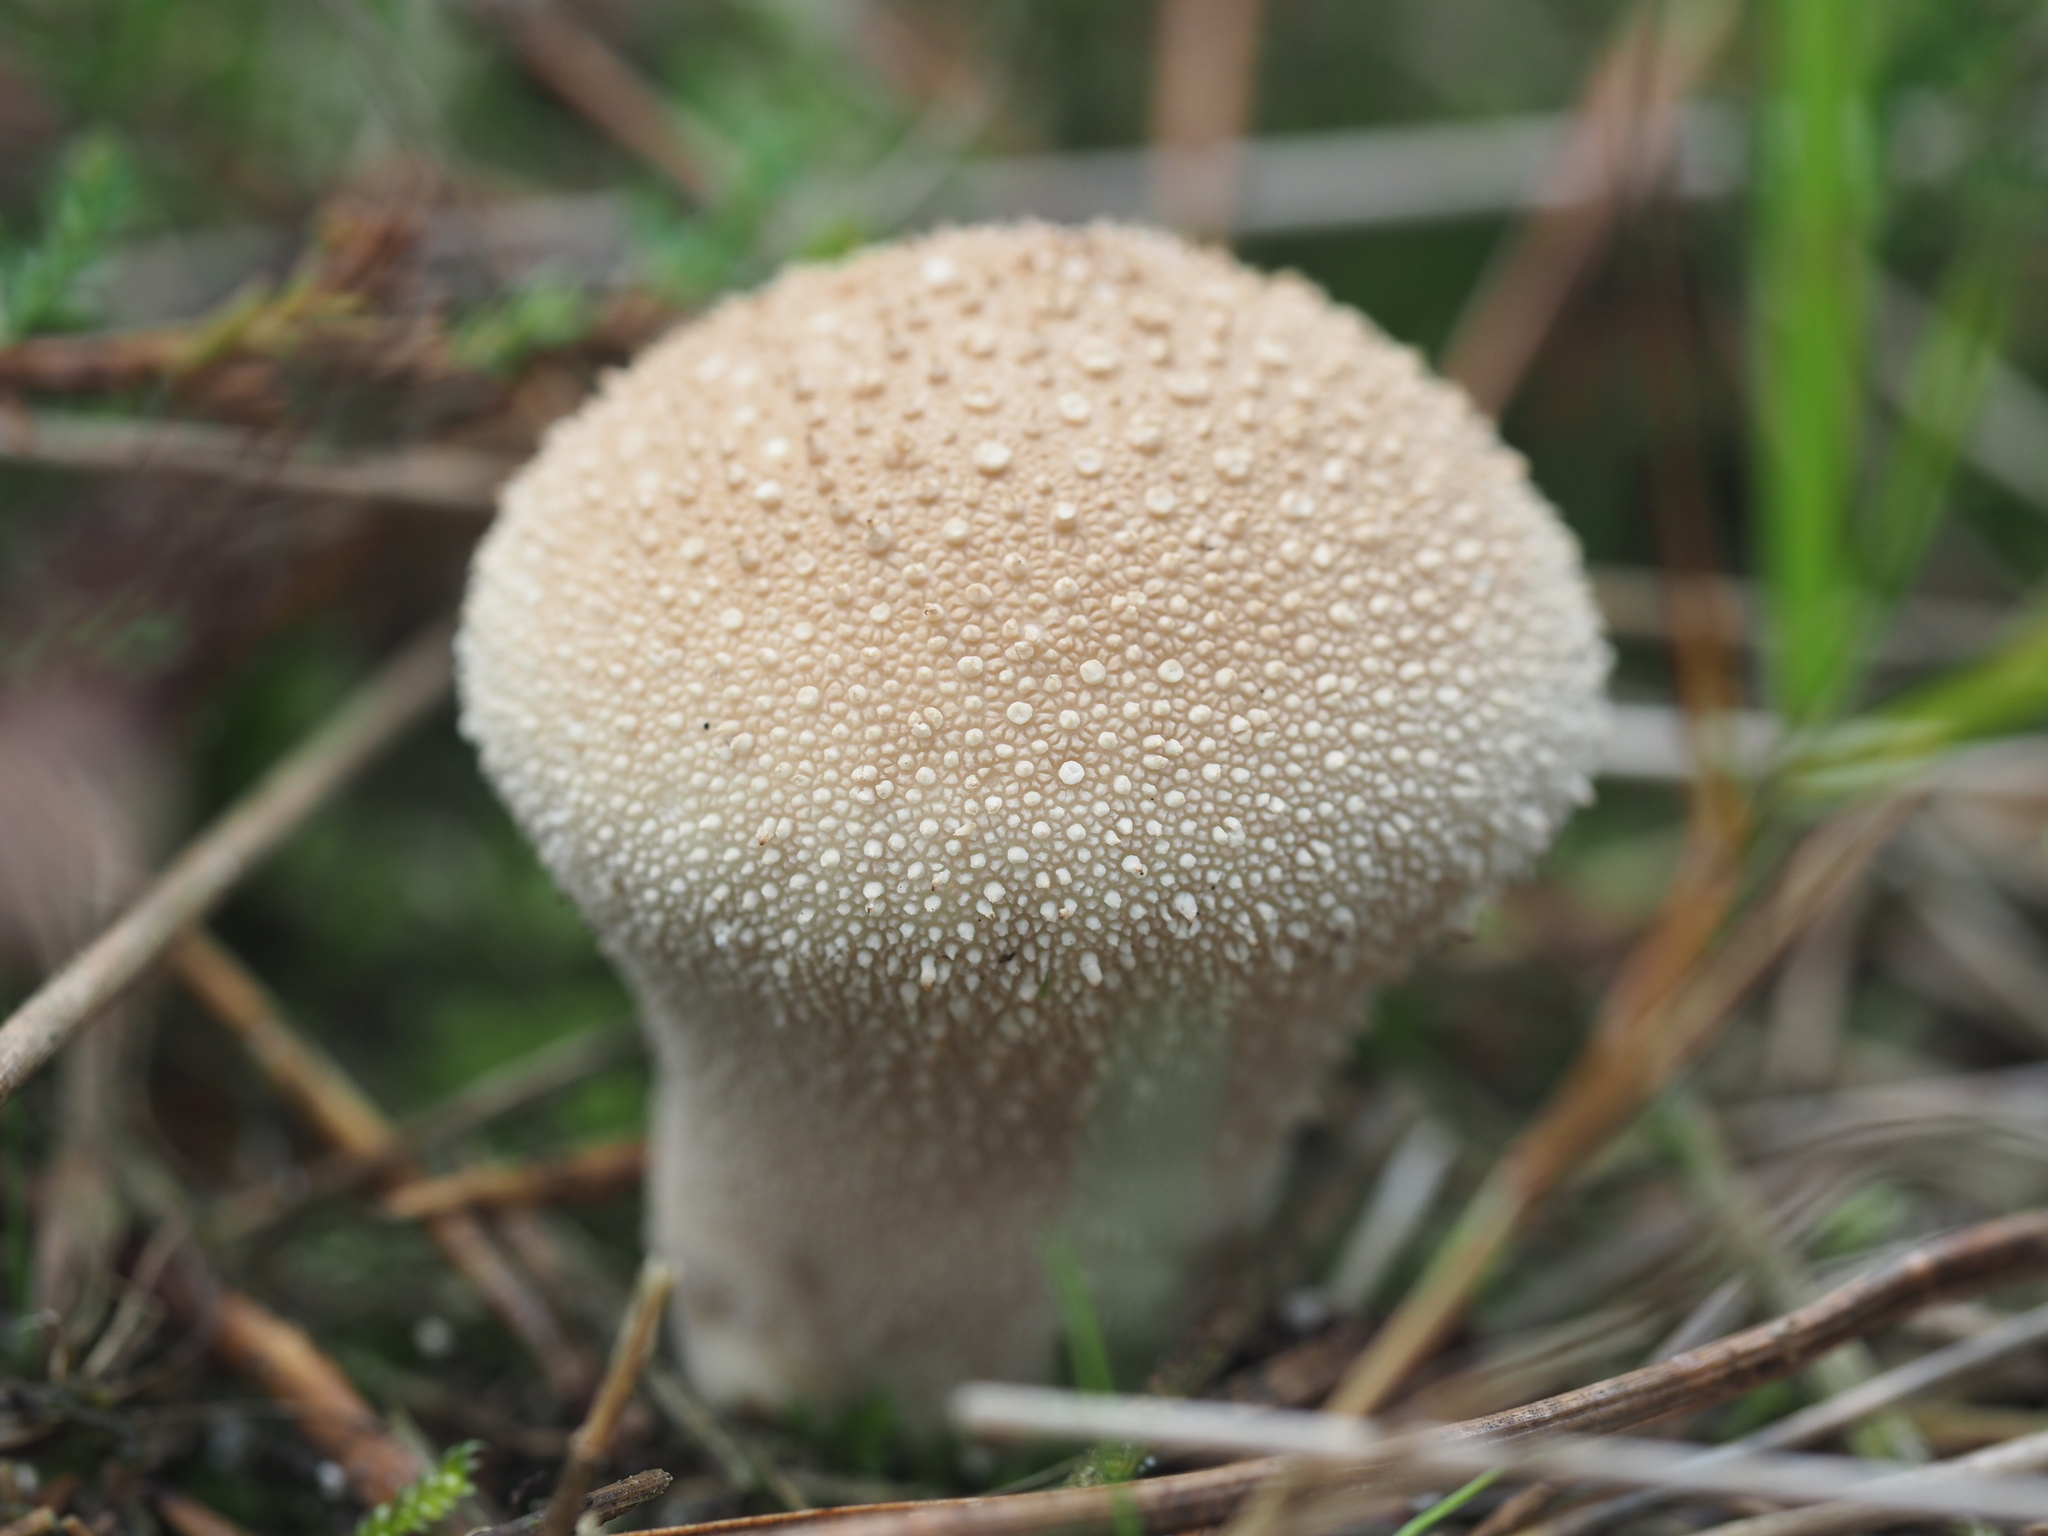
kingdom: Fungi
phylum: Basidiomycota
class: Agaricomycetes
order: Agaricales
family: Lycoperdaceae
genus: Lycoperdon
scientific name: Lycoperdon perlatum
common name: Common puffball
